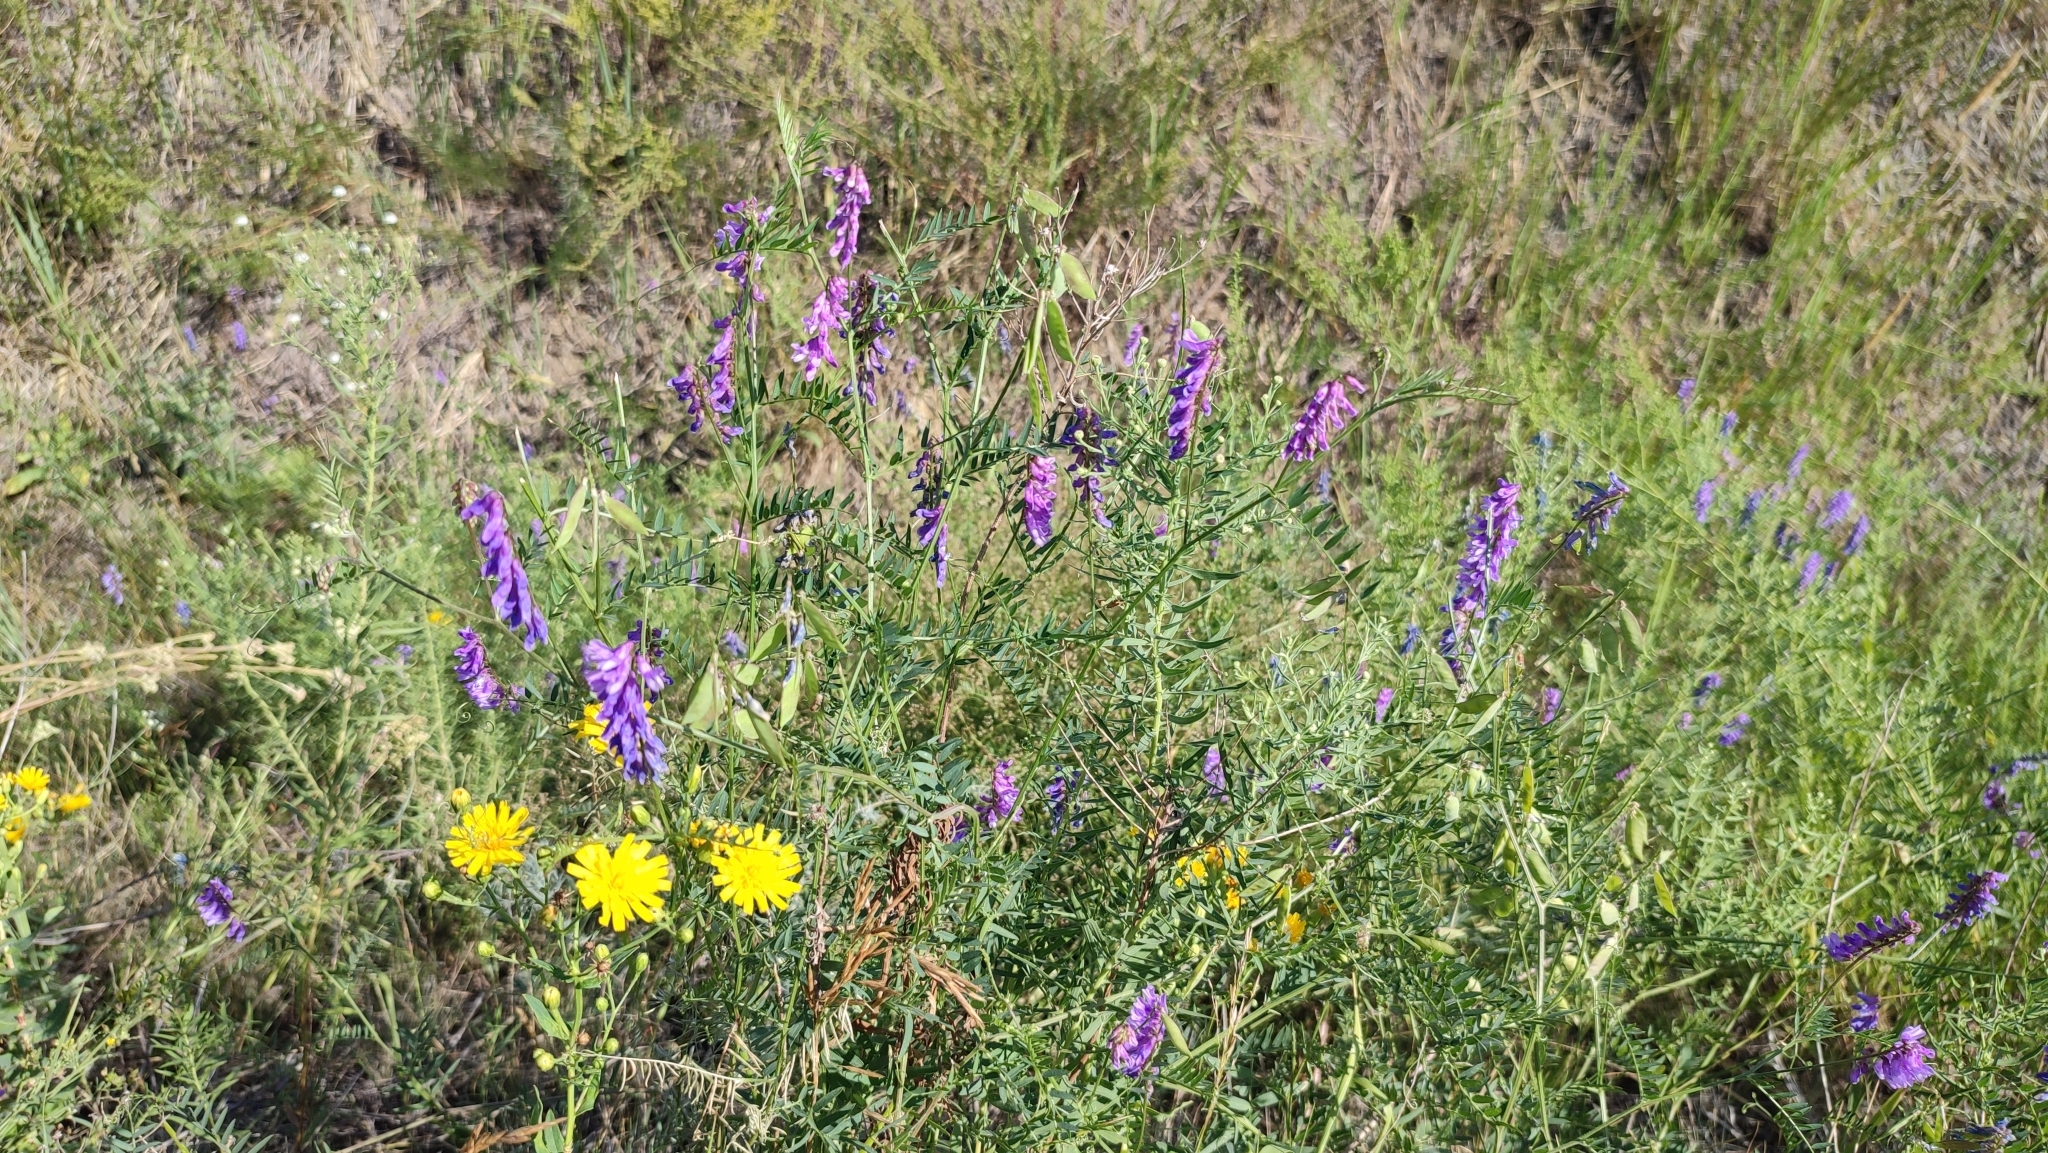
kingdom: Plantae
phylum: Tracheophyta
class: Magnoliopsida
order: Fabales
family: Fabaceae
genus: Vicia
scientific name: Vicia cracca
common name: Bird vetch
